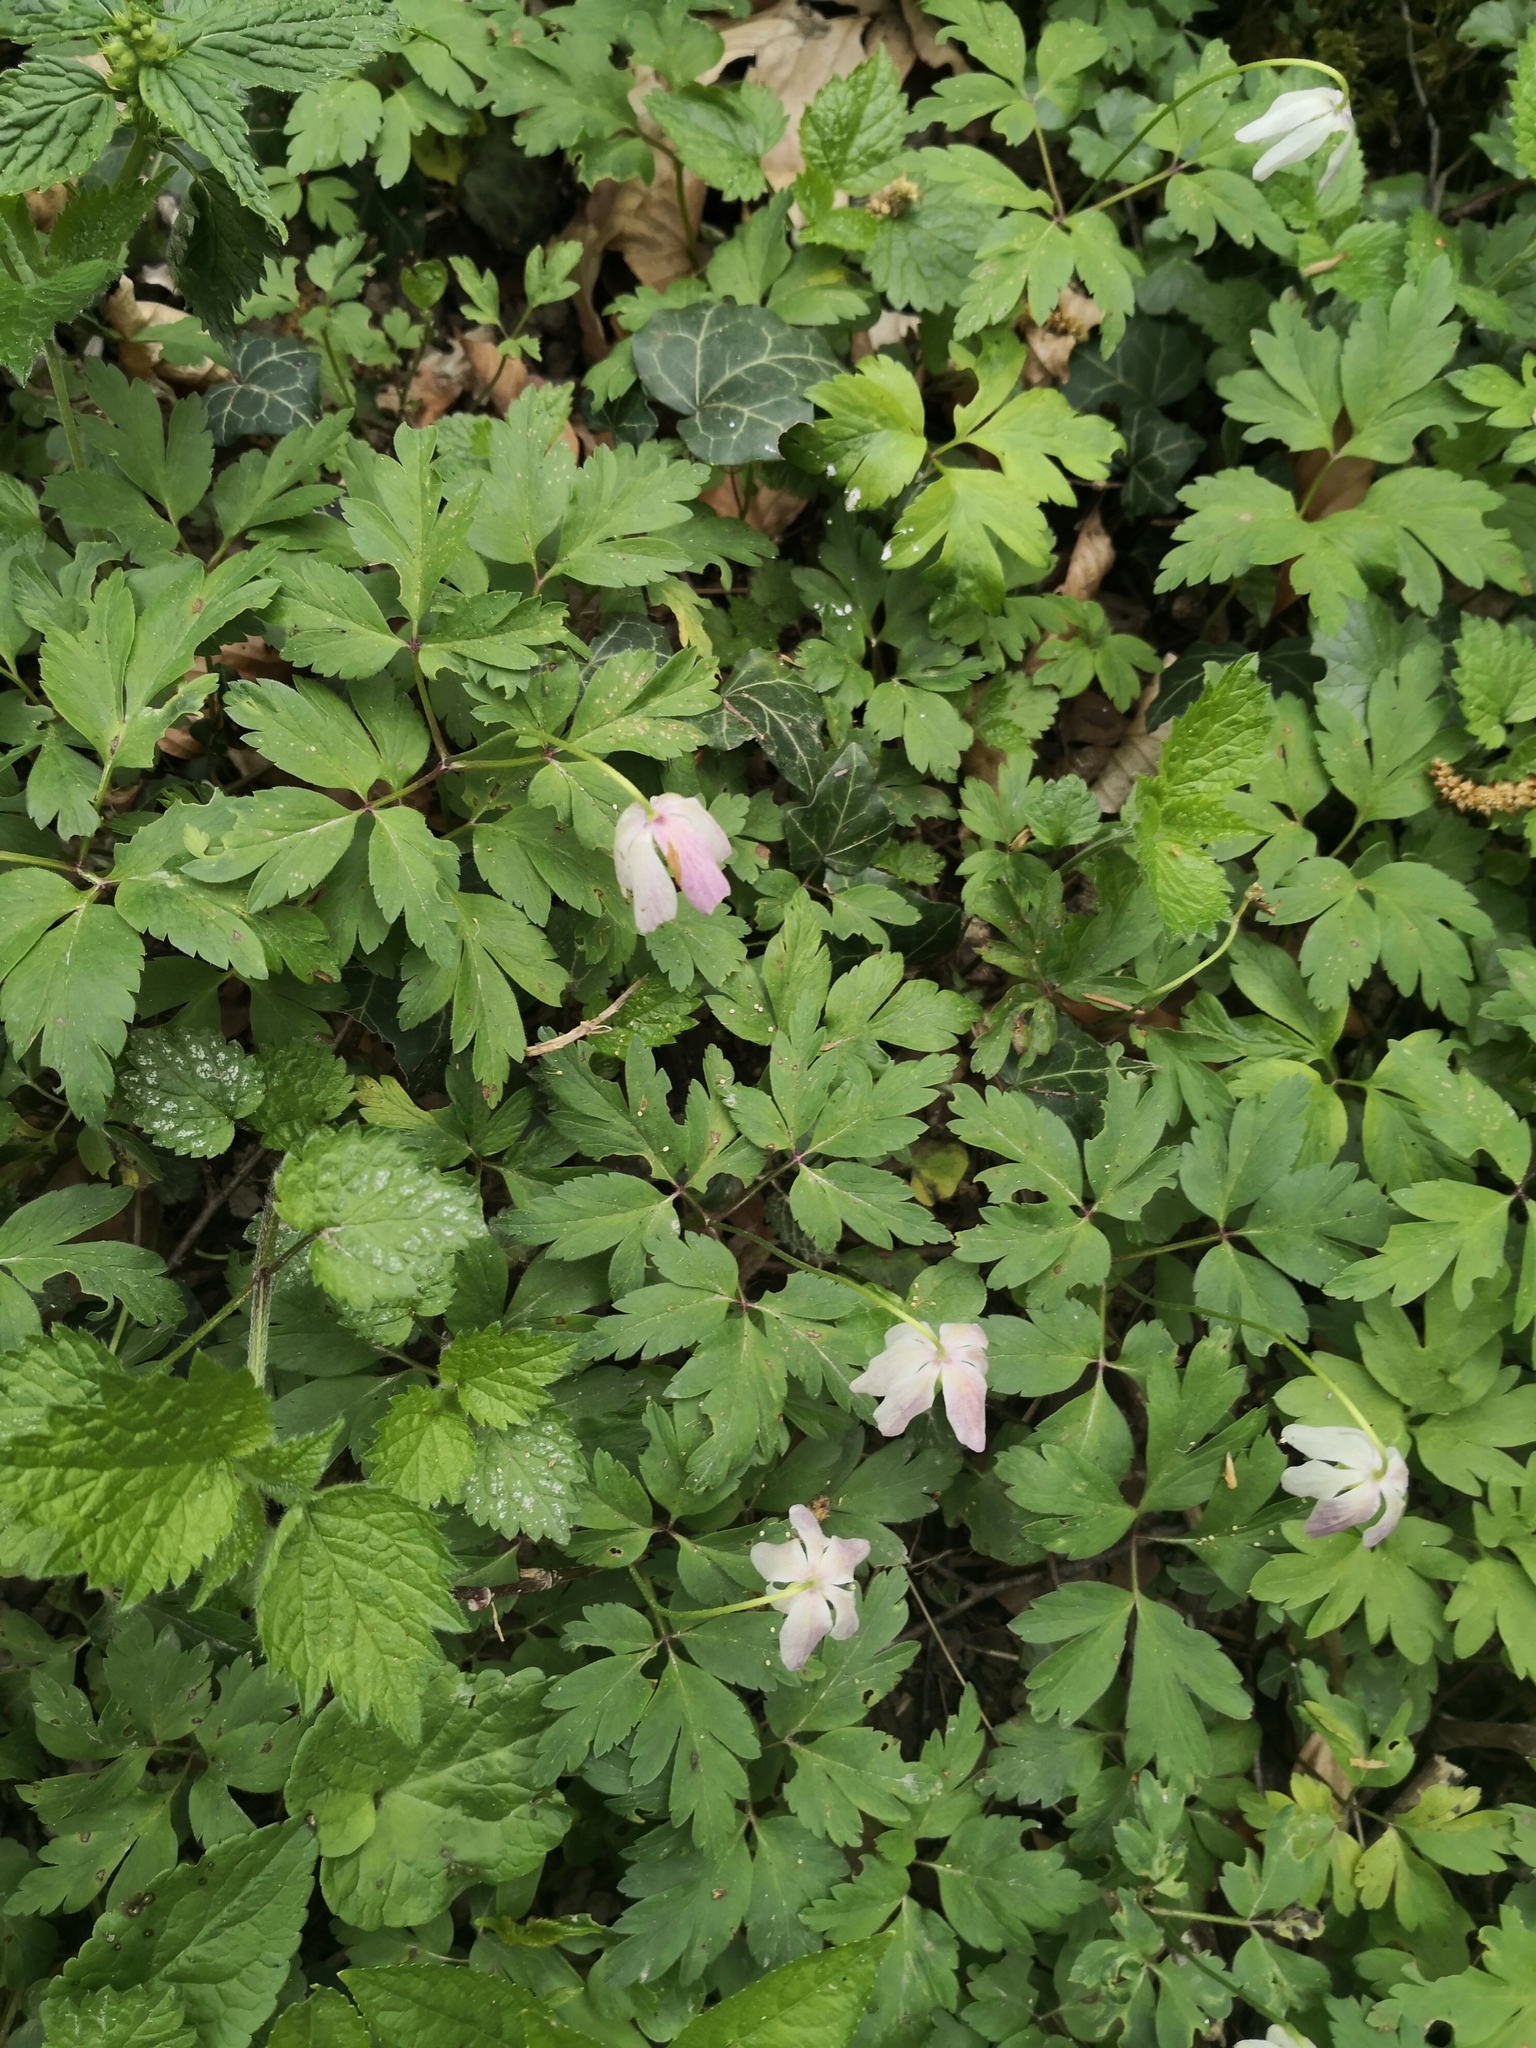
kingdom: Plantae
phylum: Tracheophyta
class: Magnoliopsida
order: Ranunculales
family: Ranunculaceae
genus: Anemone
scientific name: Anemone nemorosa
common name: Wood anemone
